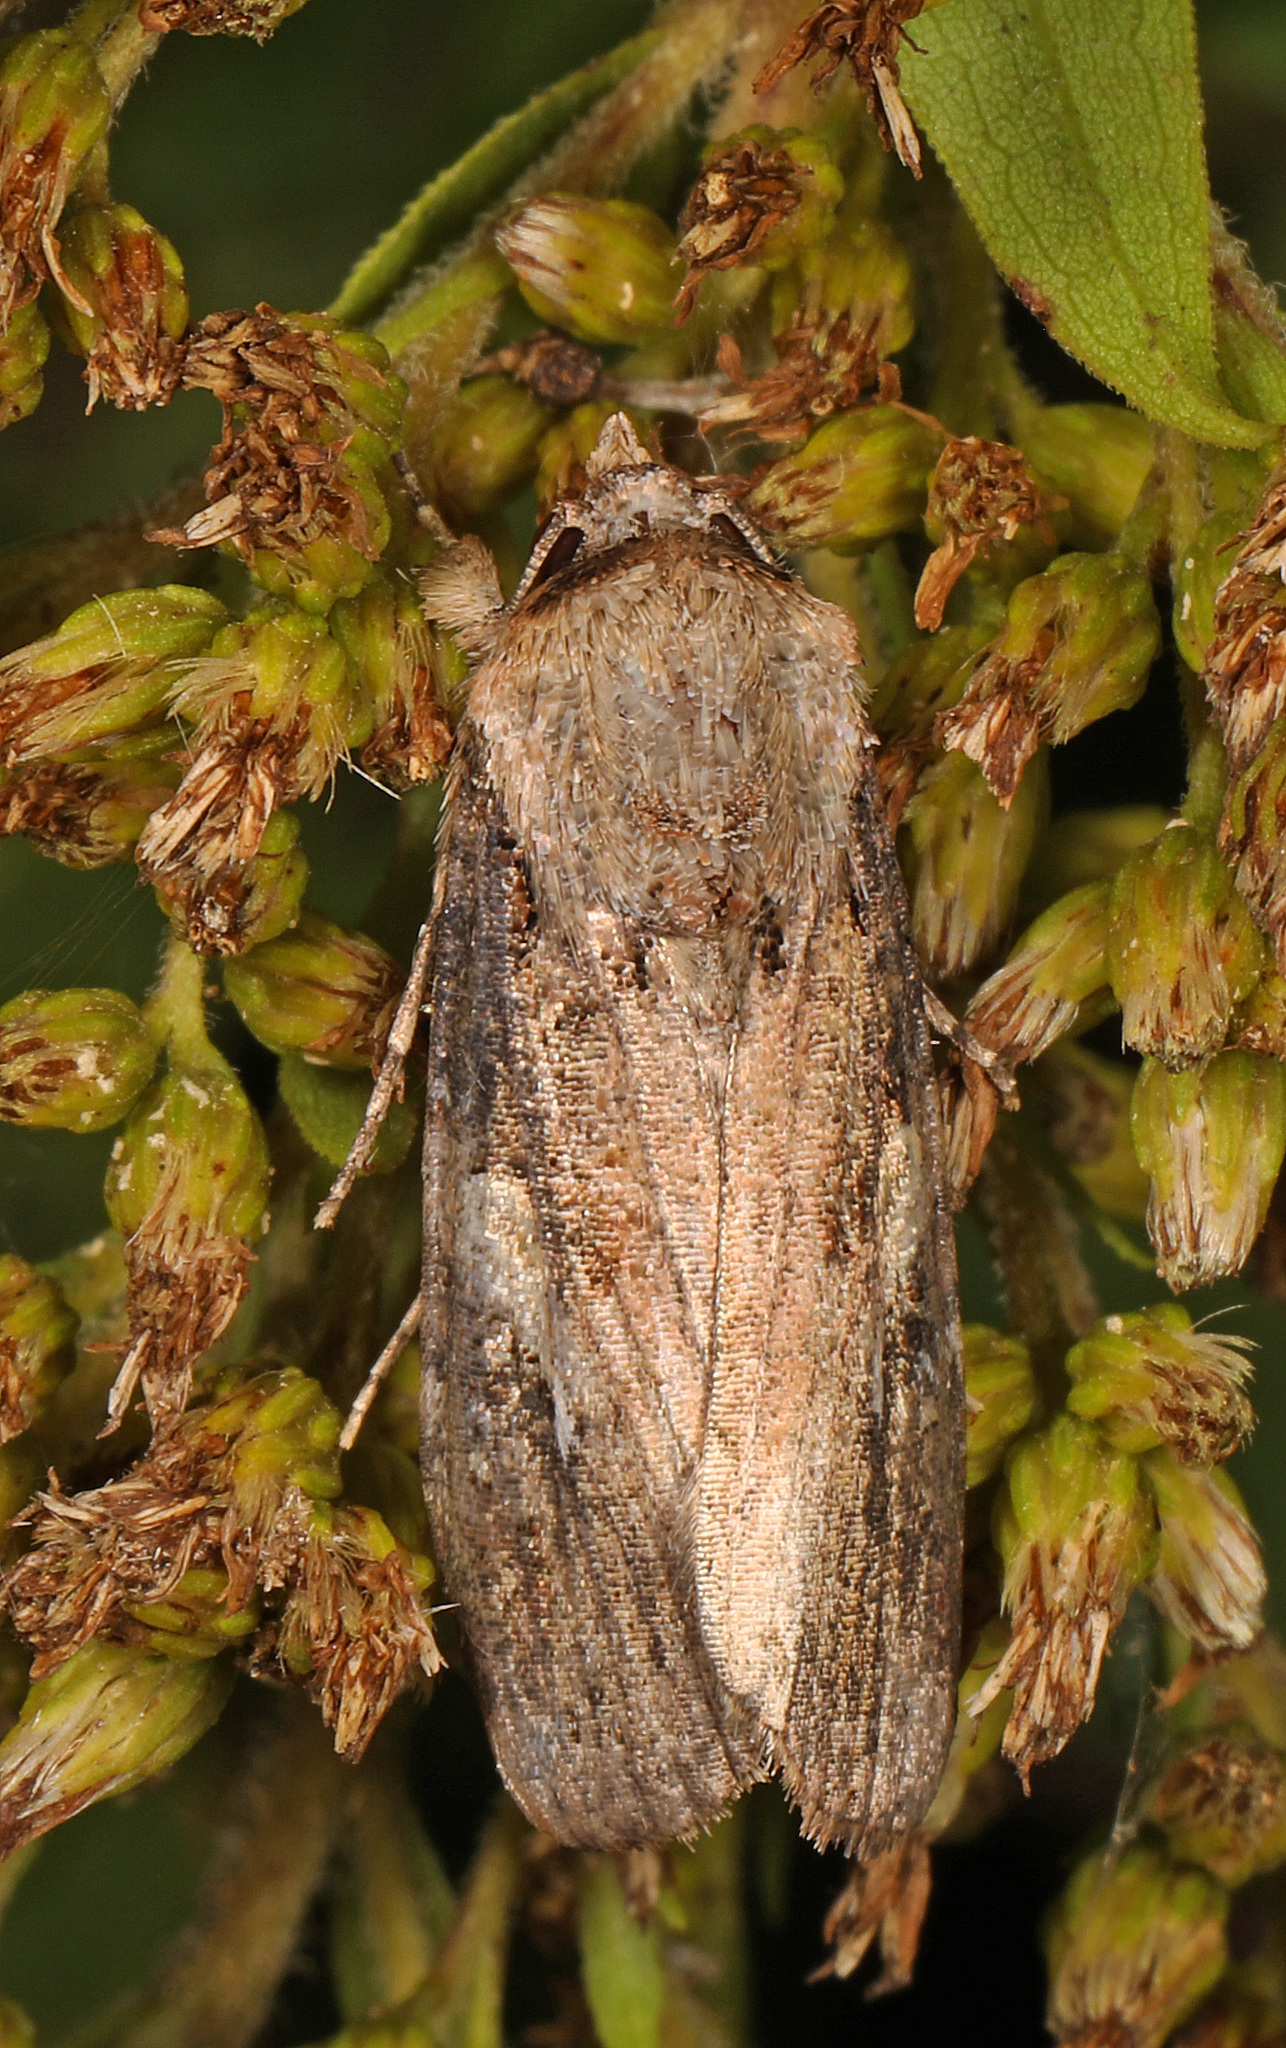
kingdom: Animalia
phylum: Arthropoda
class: Insecta
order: Lepidoptera
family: Noctuidae
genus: Spodoptera
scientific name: Spodoptera frugiperda
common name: Fall armyworm
